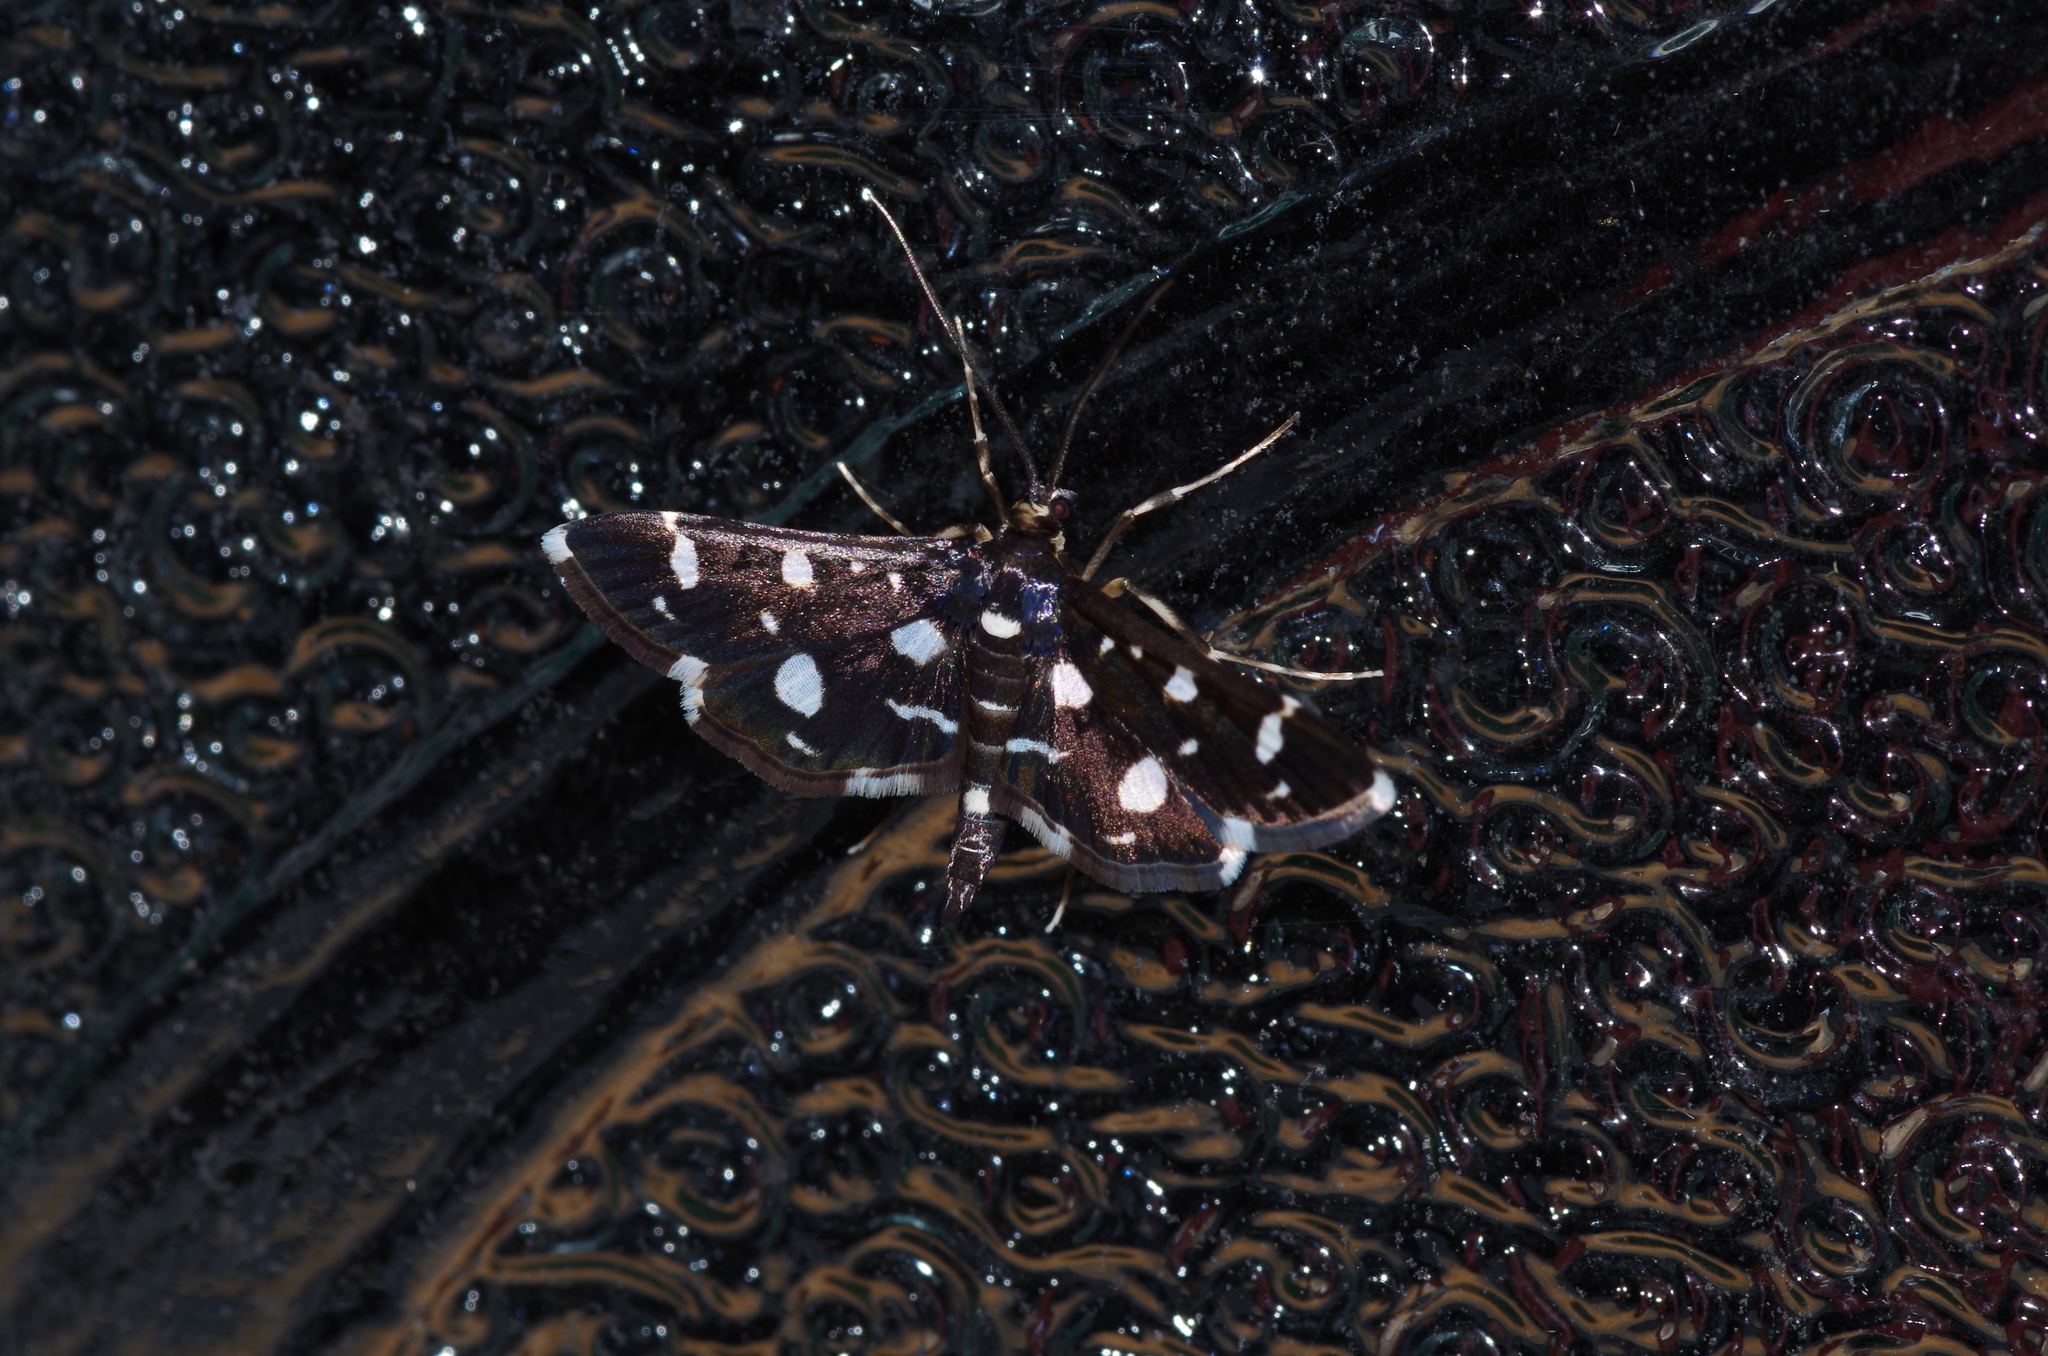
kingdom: Animalia
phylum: Arthropoda
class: Insecta
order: Lepidoptera
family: Crambidae
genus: Bocchoris
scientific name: Bocchoris inspersalis
